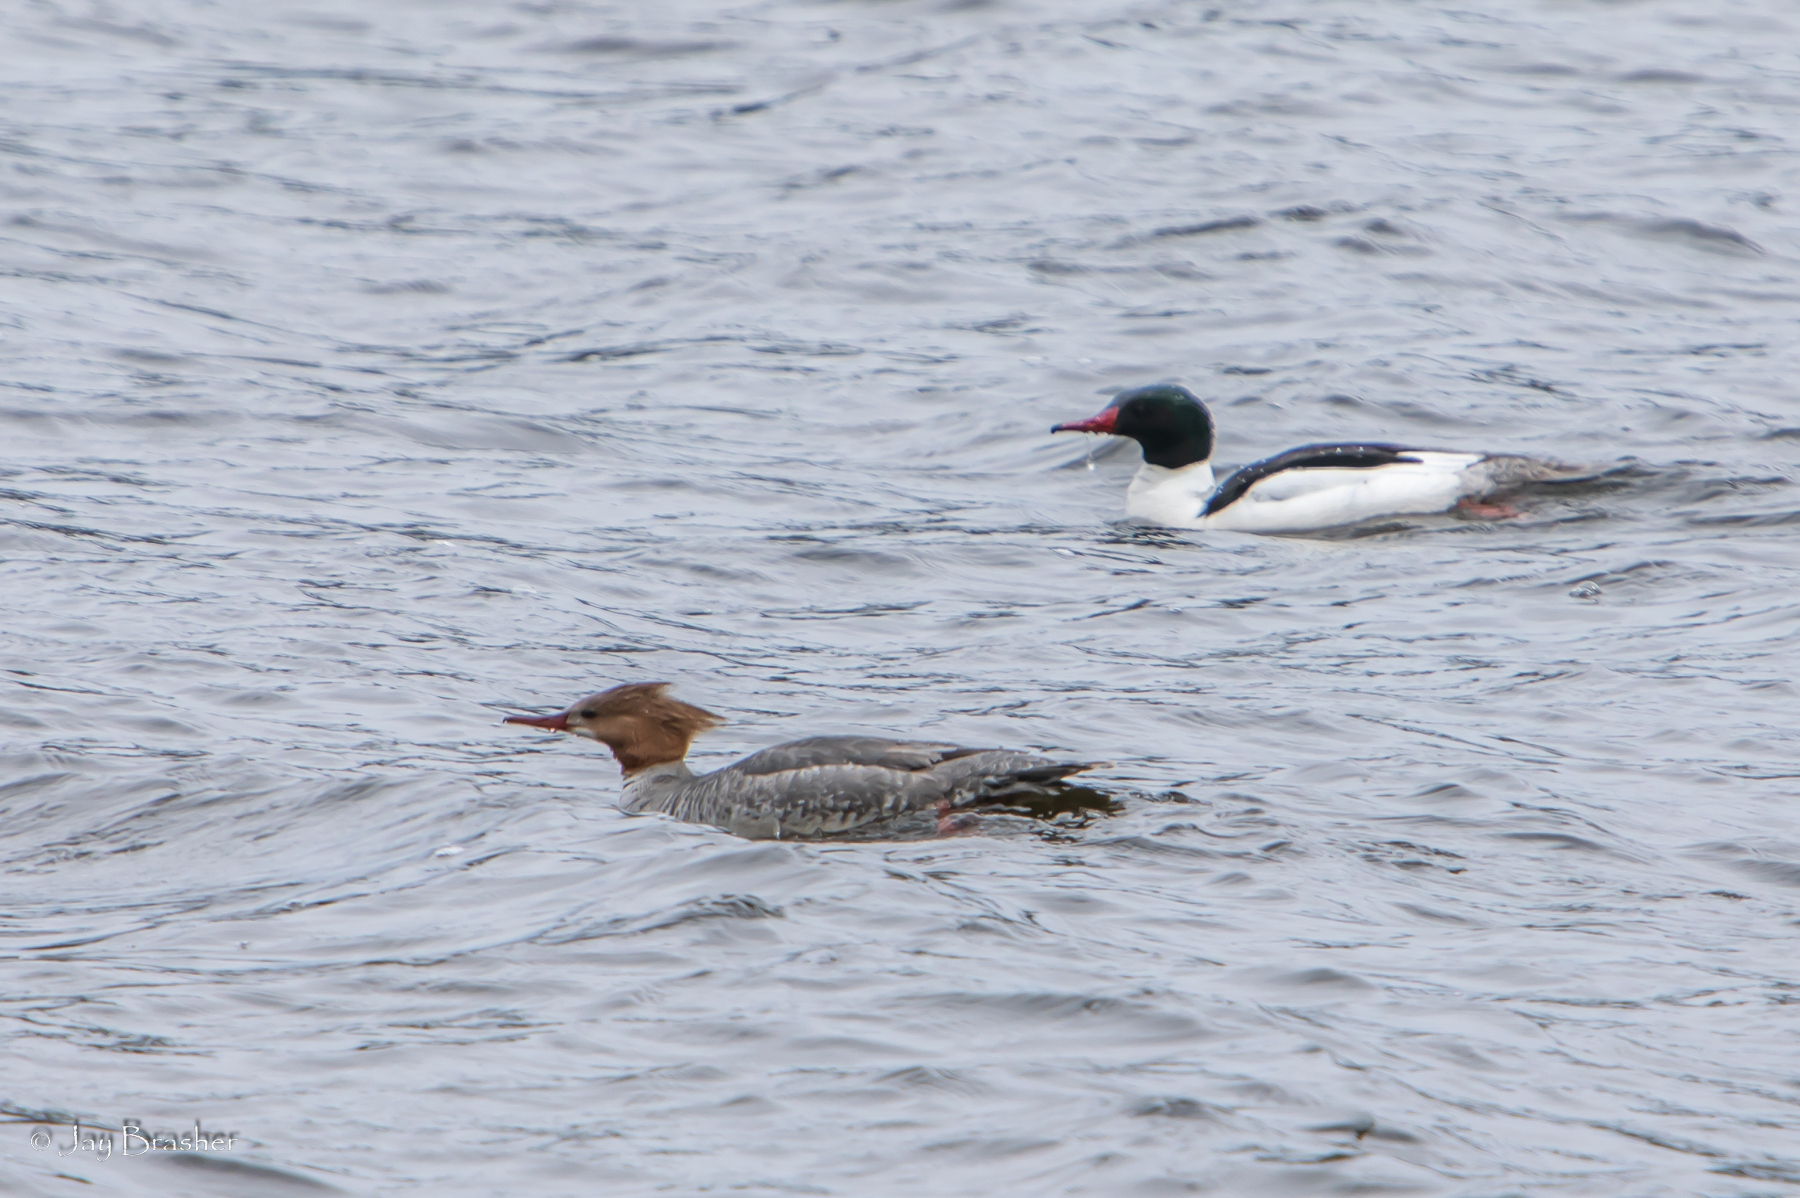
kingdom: Animalia
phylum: Chordata
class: Aves
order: Anseriformes
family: Anatidae
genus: Mergus
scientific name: Mergus merganser
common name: Common merganser
